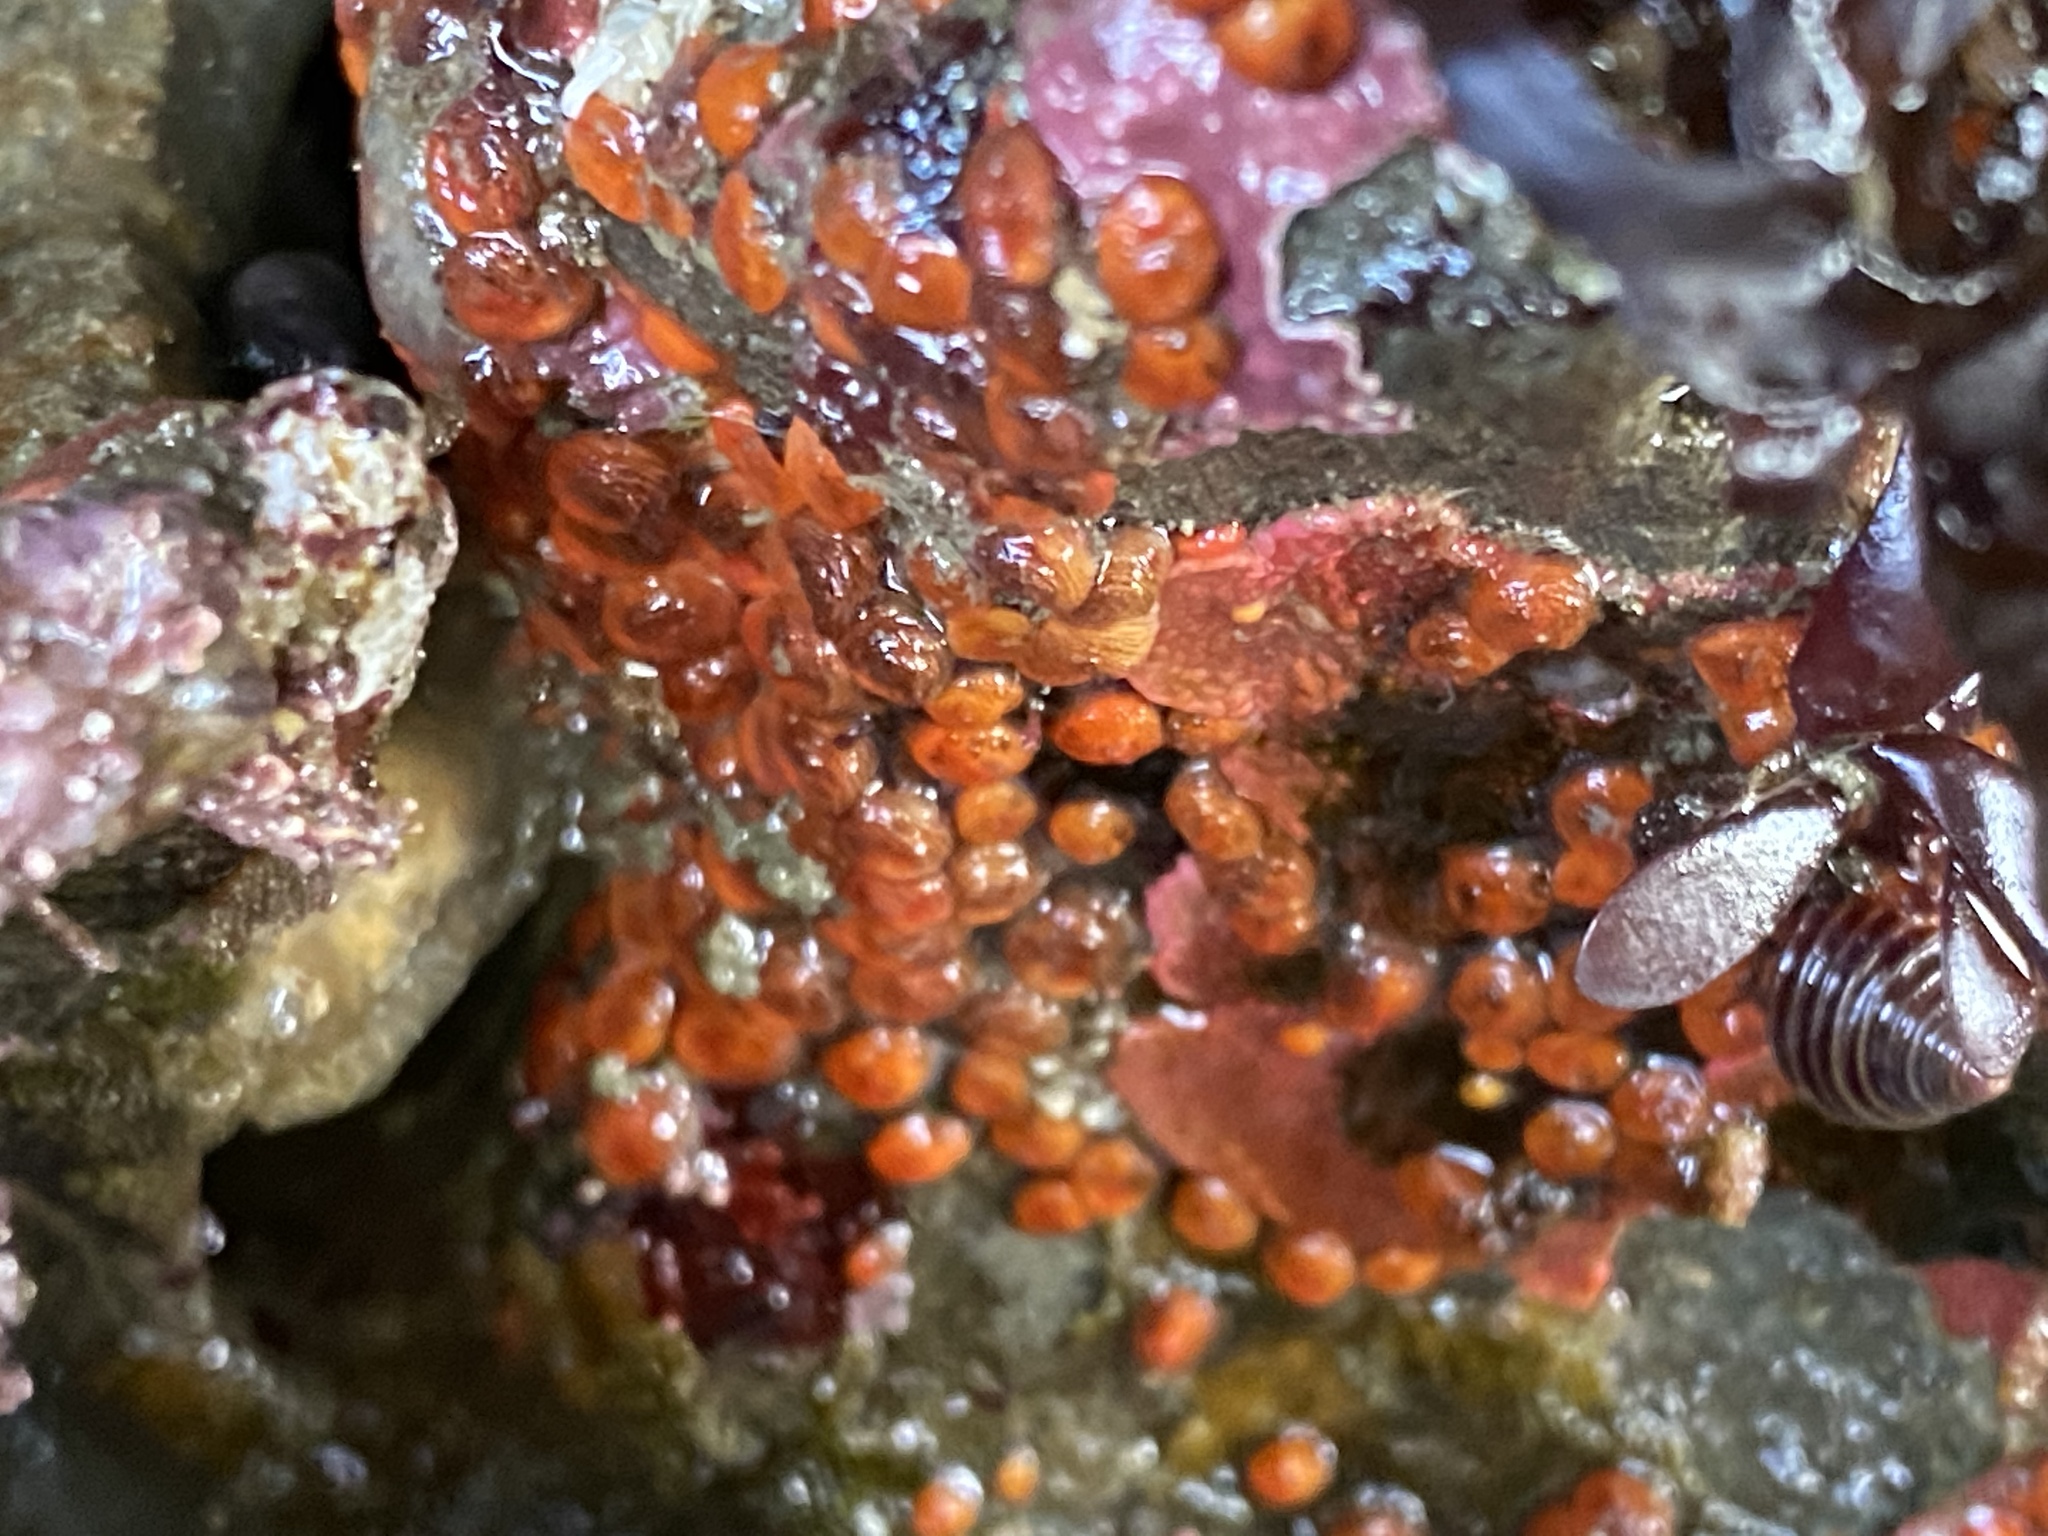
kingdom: Animalia
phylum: Chordata
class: Ascidiacea
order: Stolidobranchia
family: Styelidae
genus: Metandrocarpa
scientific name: Metandrocarpa taylori
